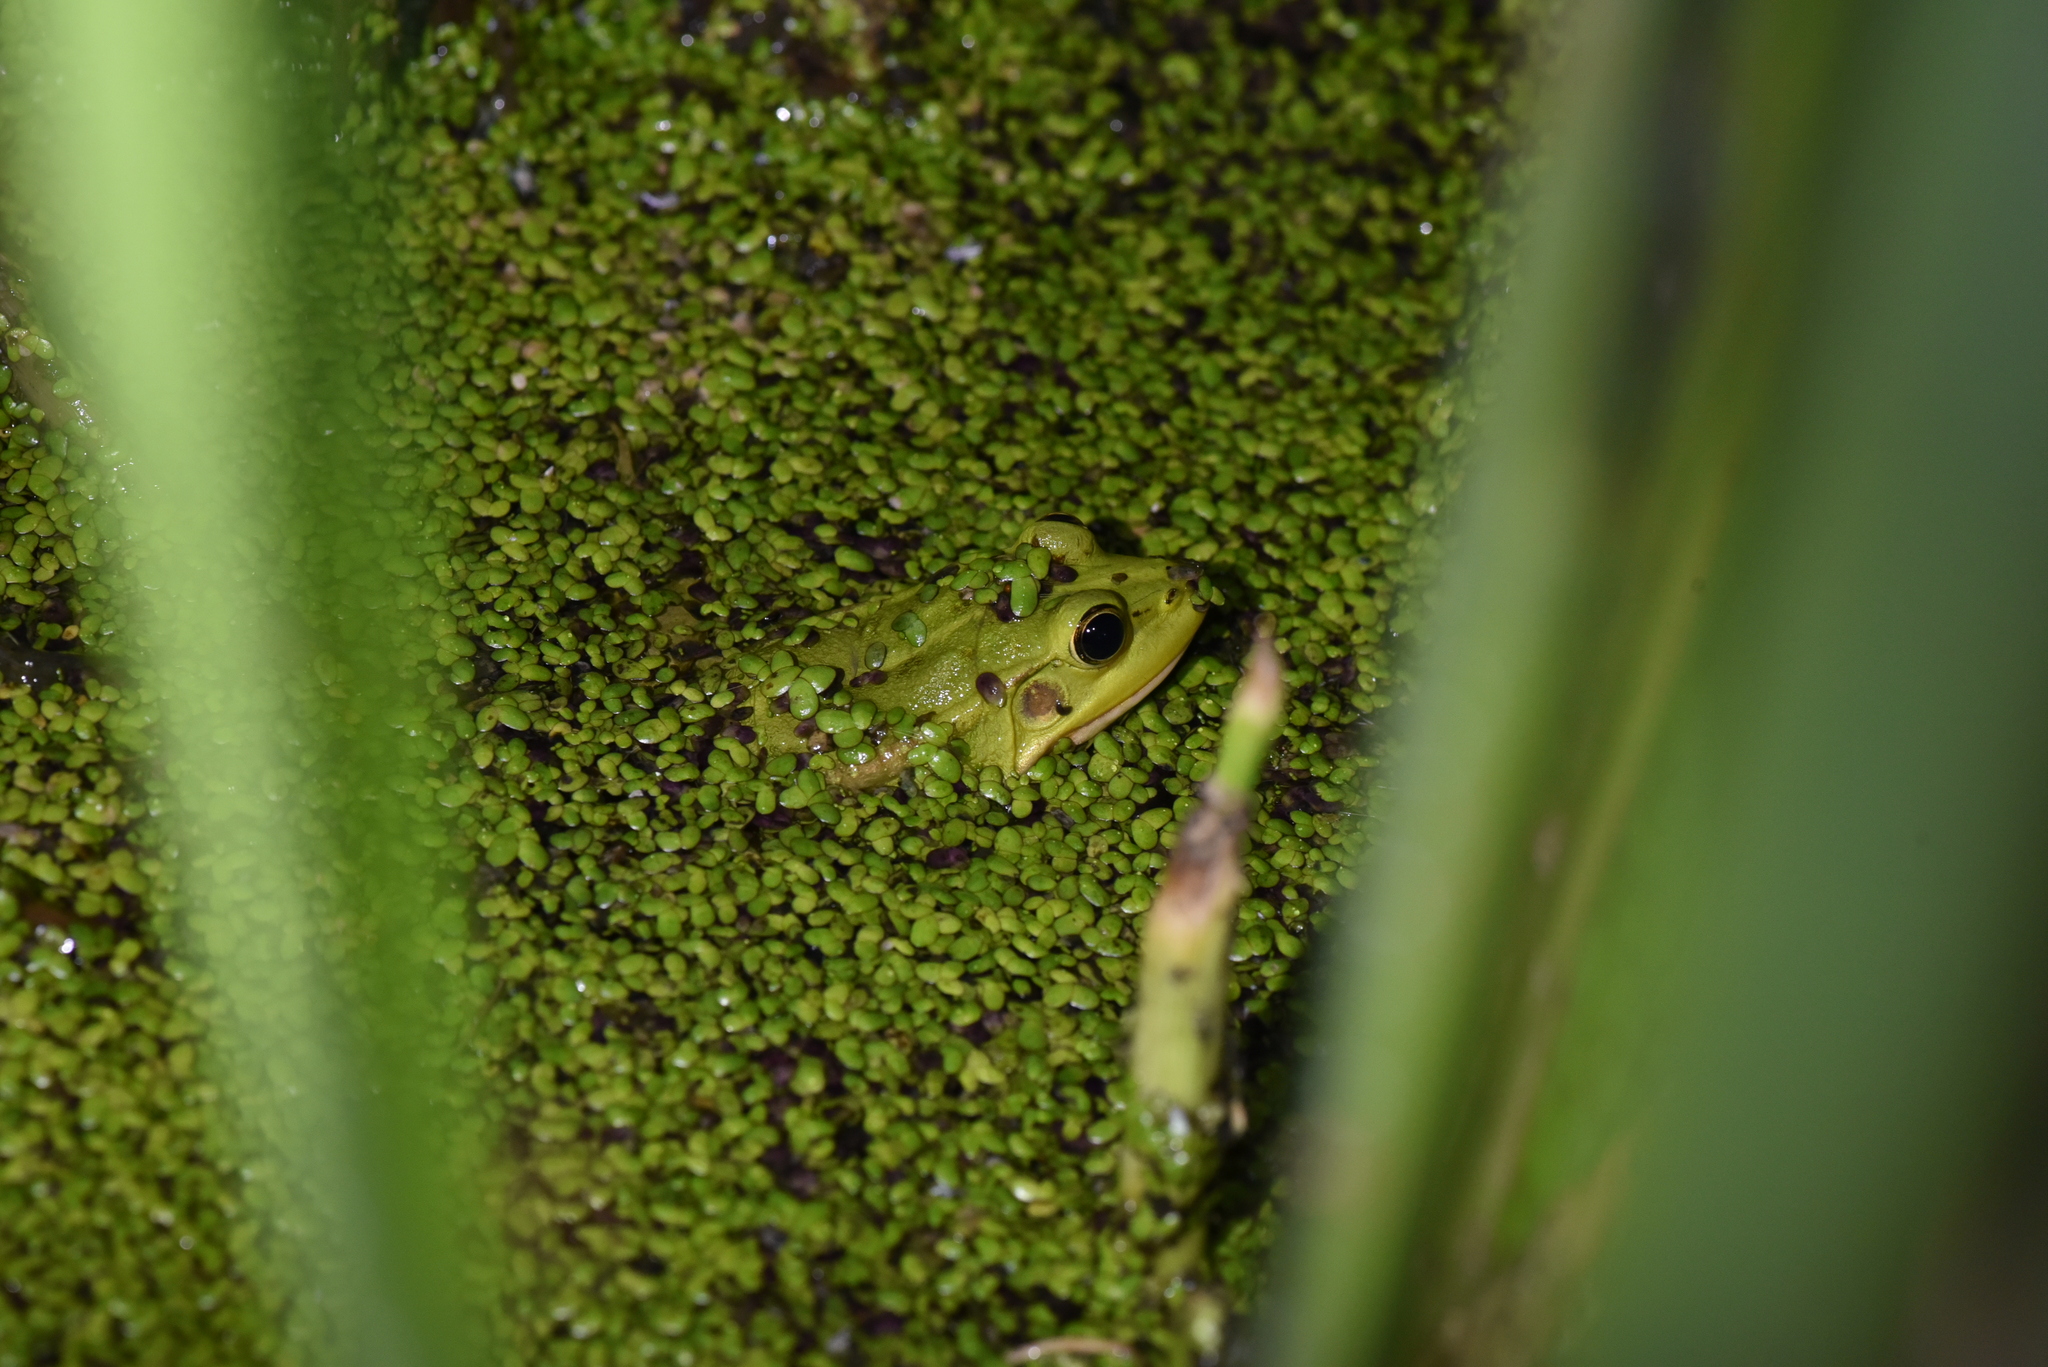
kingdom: Animalia
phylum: Chordata
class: Amphibia
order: Anura
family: Ranidae
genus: Pelophylax
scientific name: Pelophylax fukienensis
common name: Fukien gold-striped pond frog
